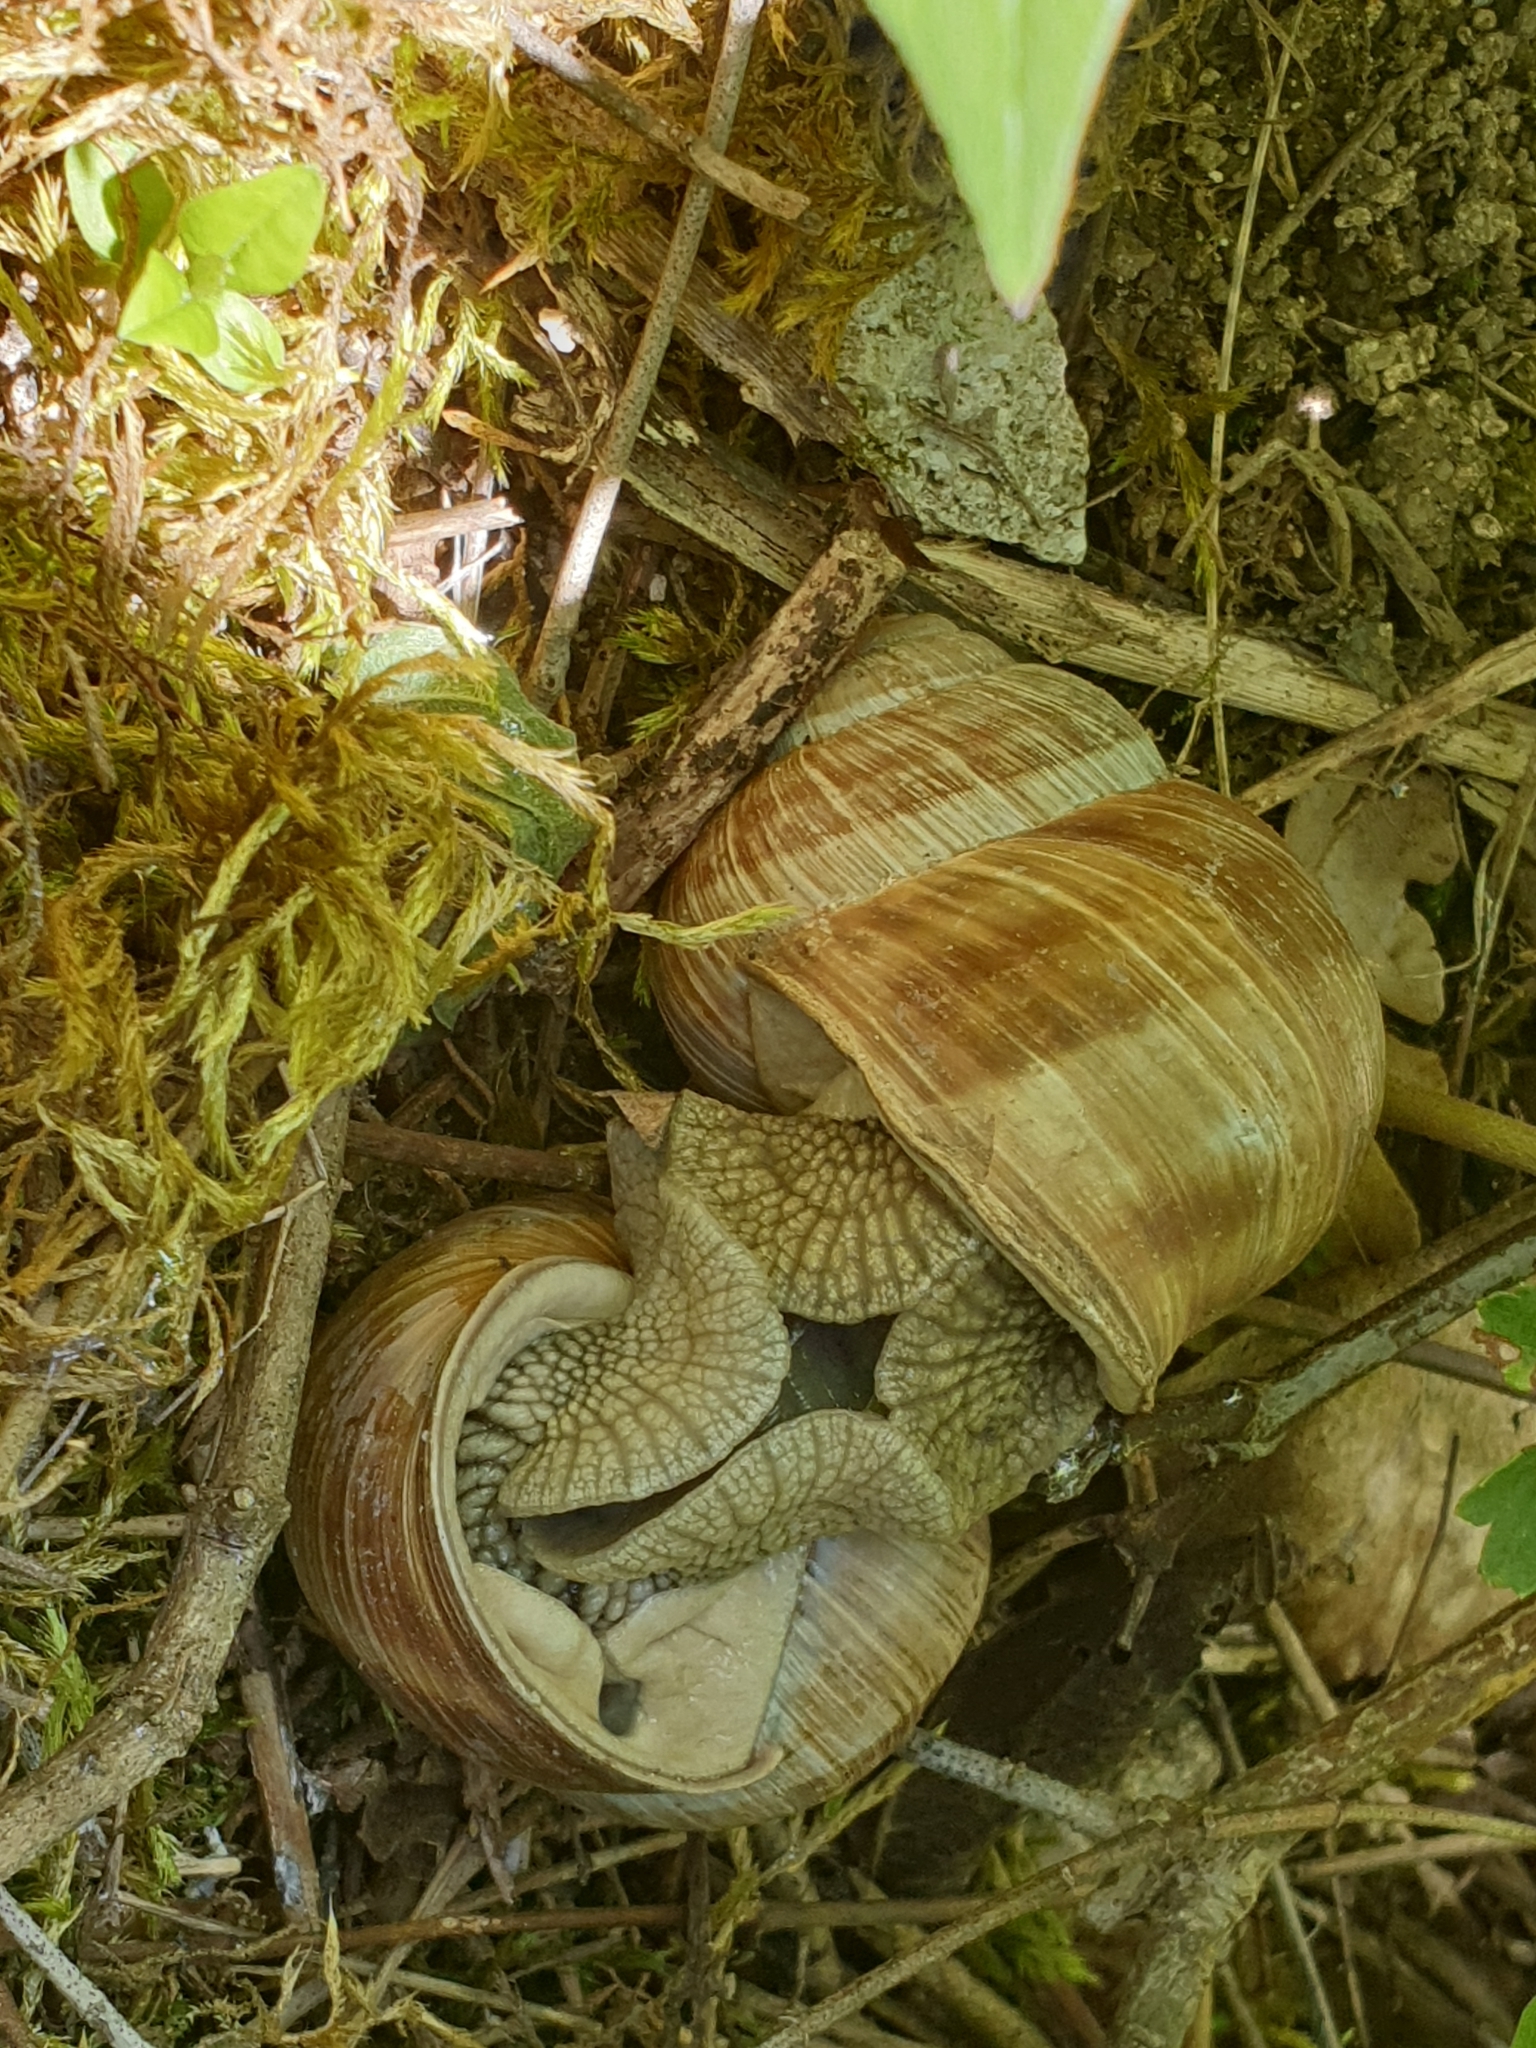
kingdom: Animalia
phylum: Mollusca
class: Gastropoda
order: Stylommatophora
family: Helicidae
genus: Helix
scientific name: Helix pomatia
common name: Roman snail
